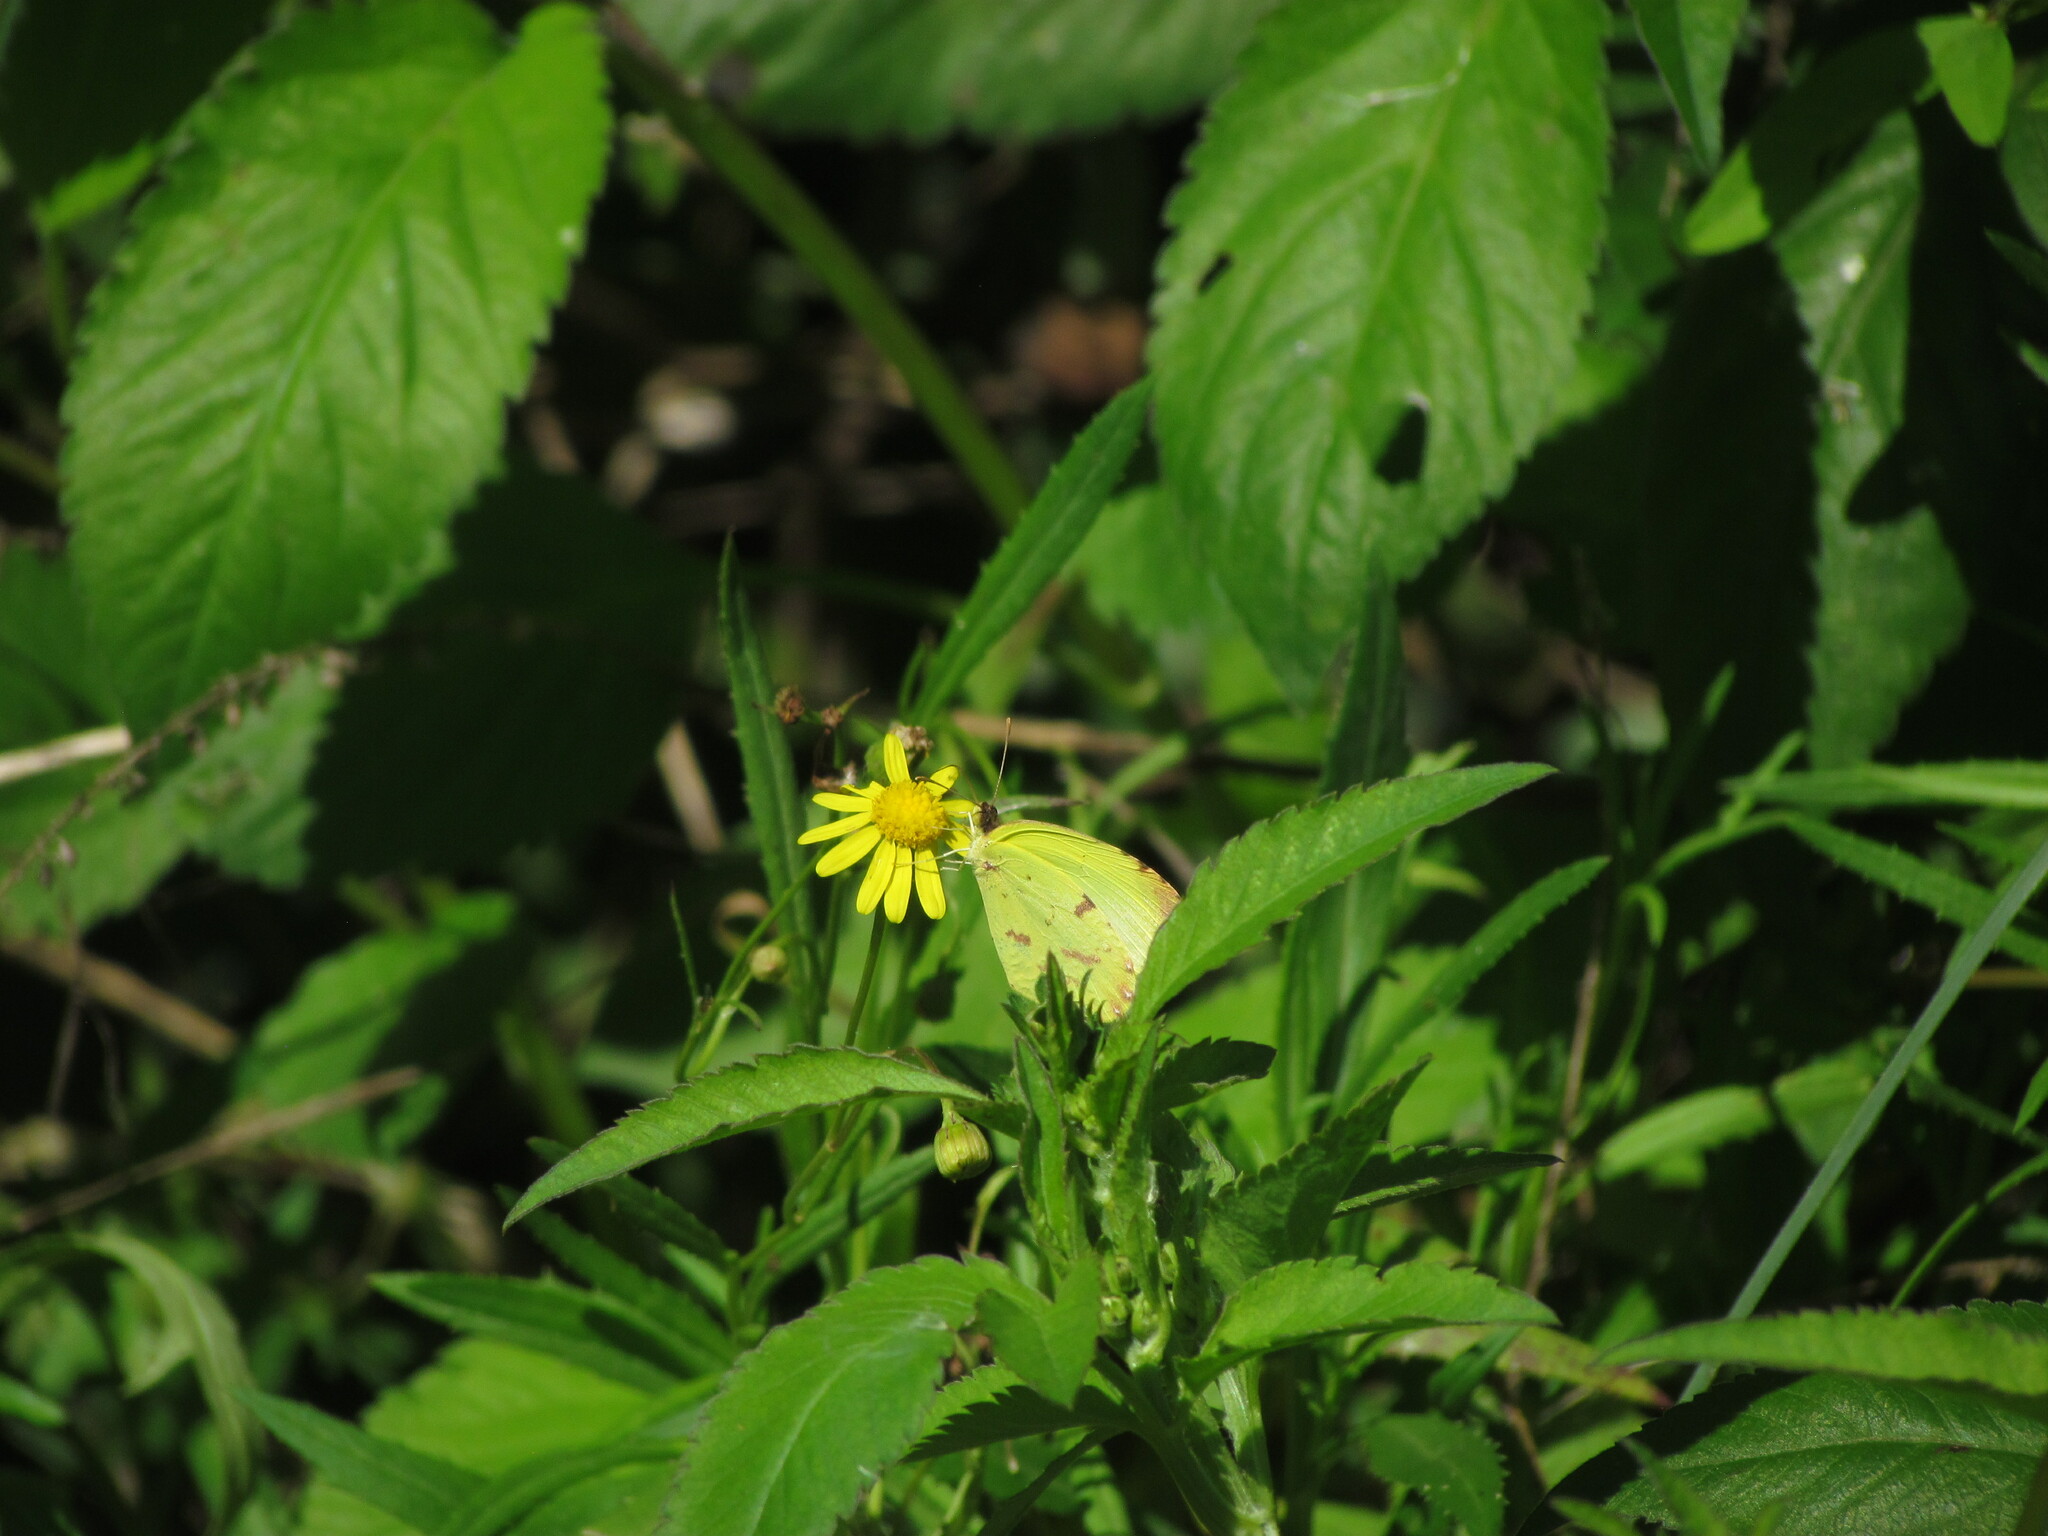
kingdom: Animalia
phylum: Arthropoda
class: Insecta
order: Lepidoptera
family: Pieridae
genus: Teriocolias
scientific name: Teriocolias
